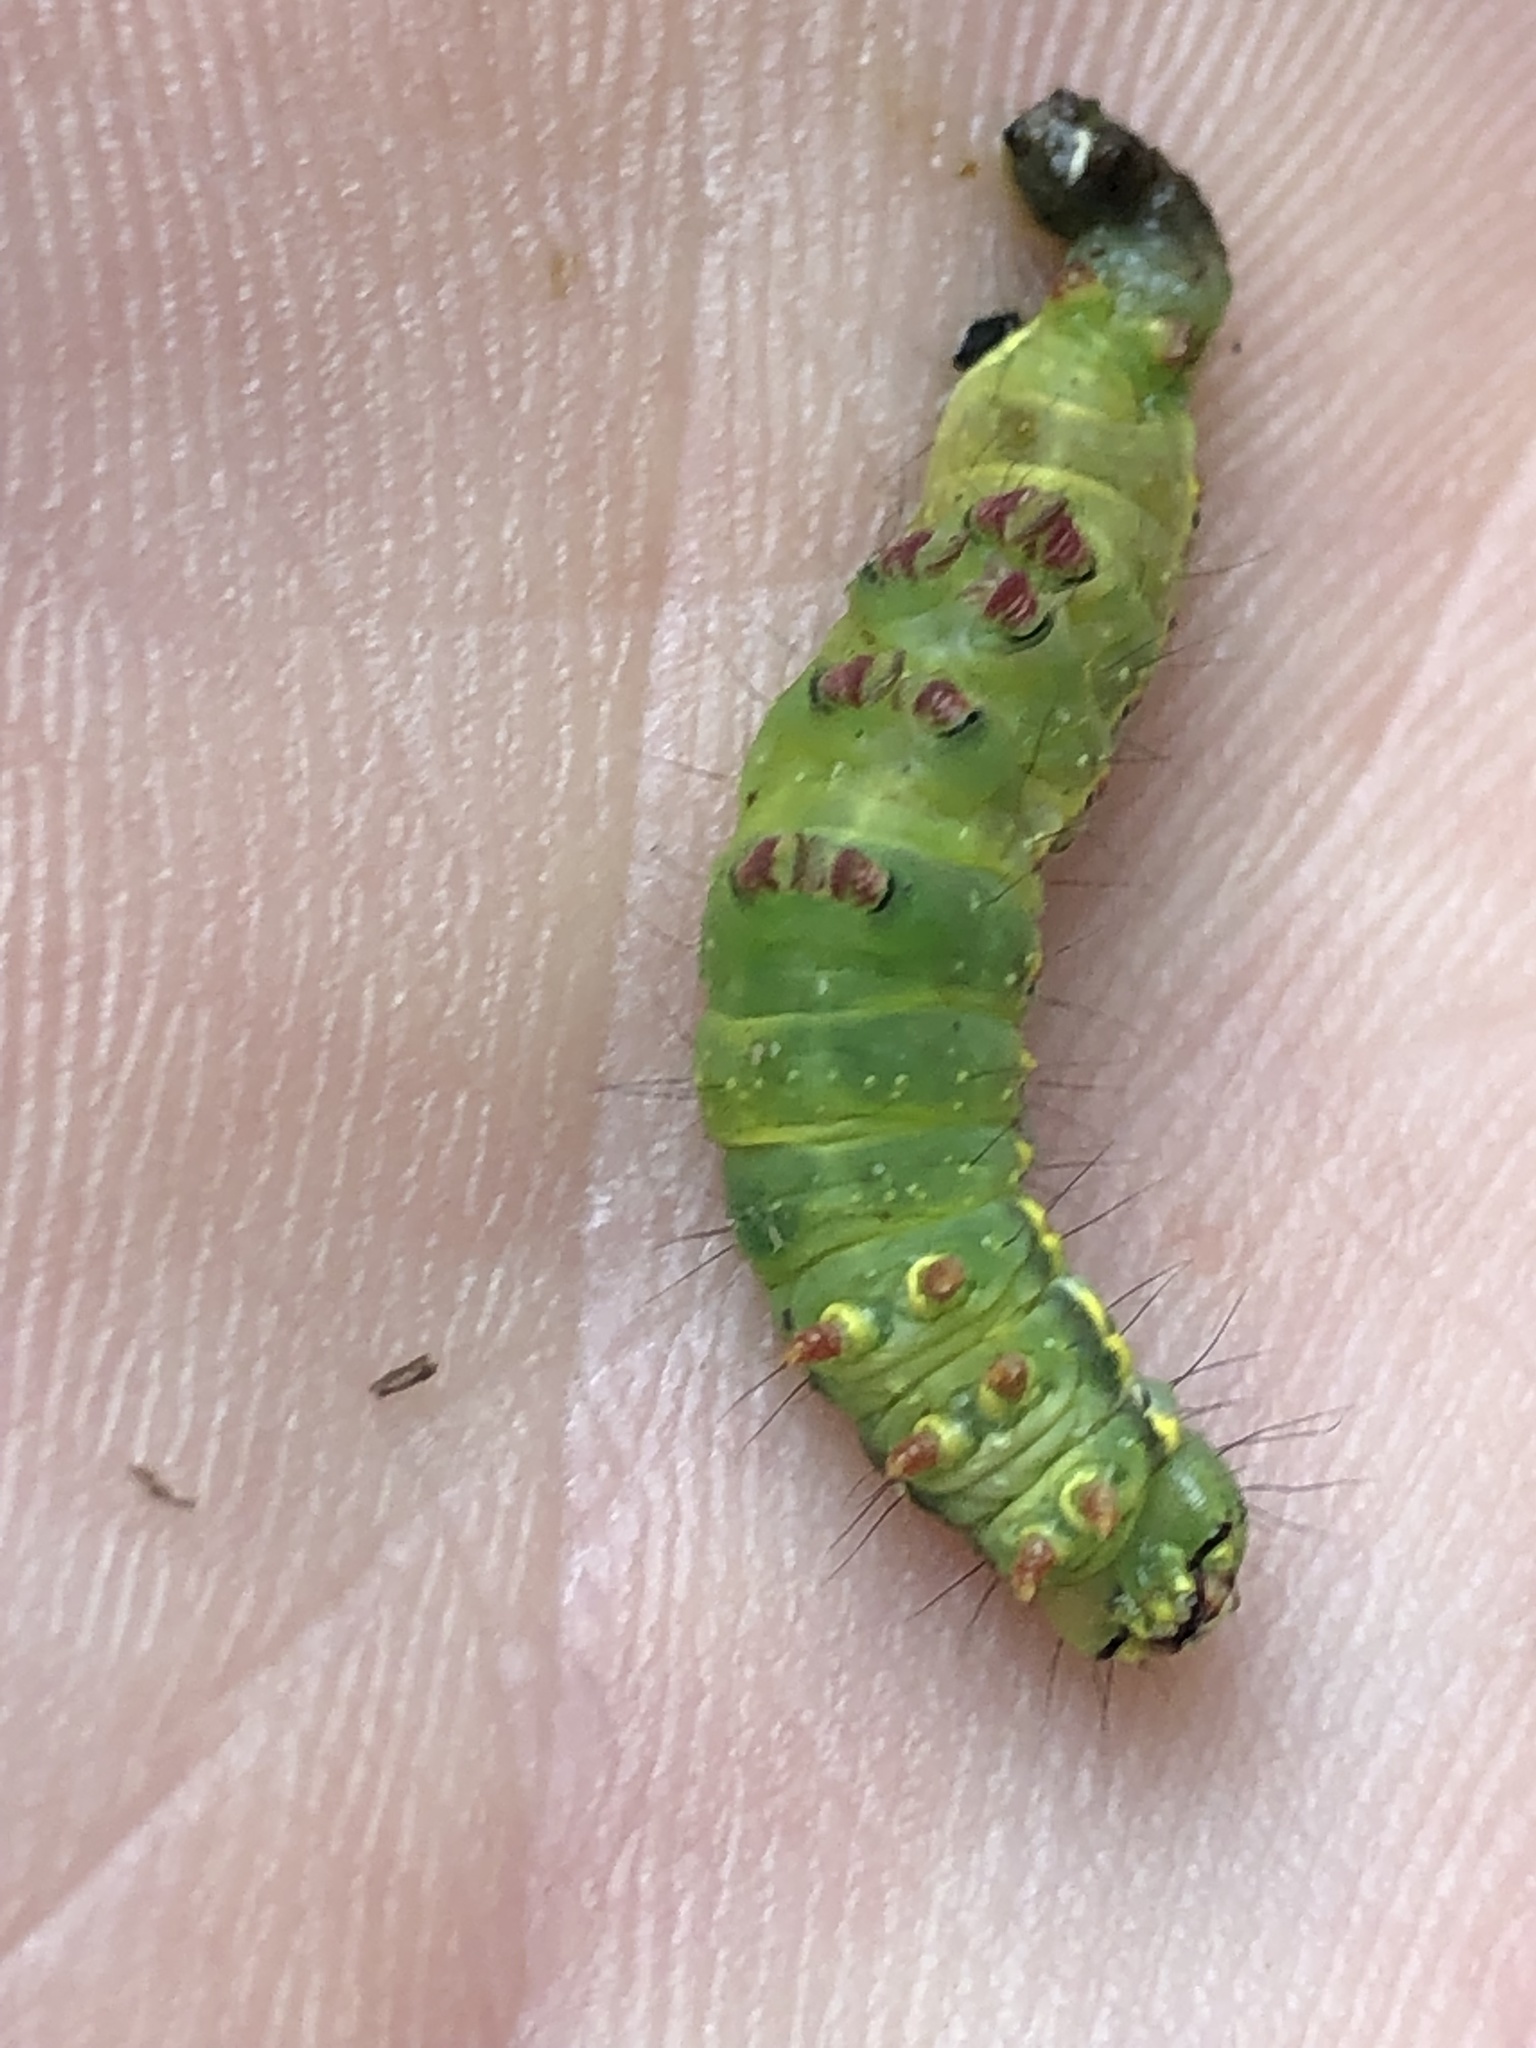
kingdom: Animalia
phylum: Arthropoda
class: Insecta
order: Lepidoptera
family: Notodontidae
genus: Ptilodon
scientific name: Ptilodon capucina
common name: Coxcomb prominent
